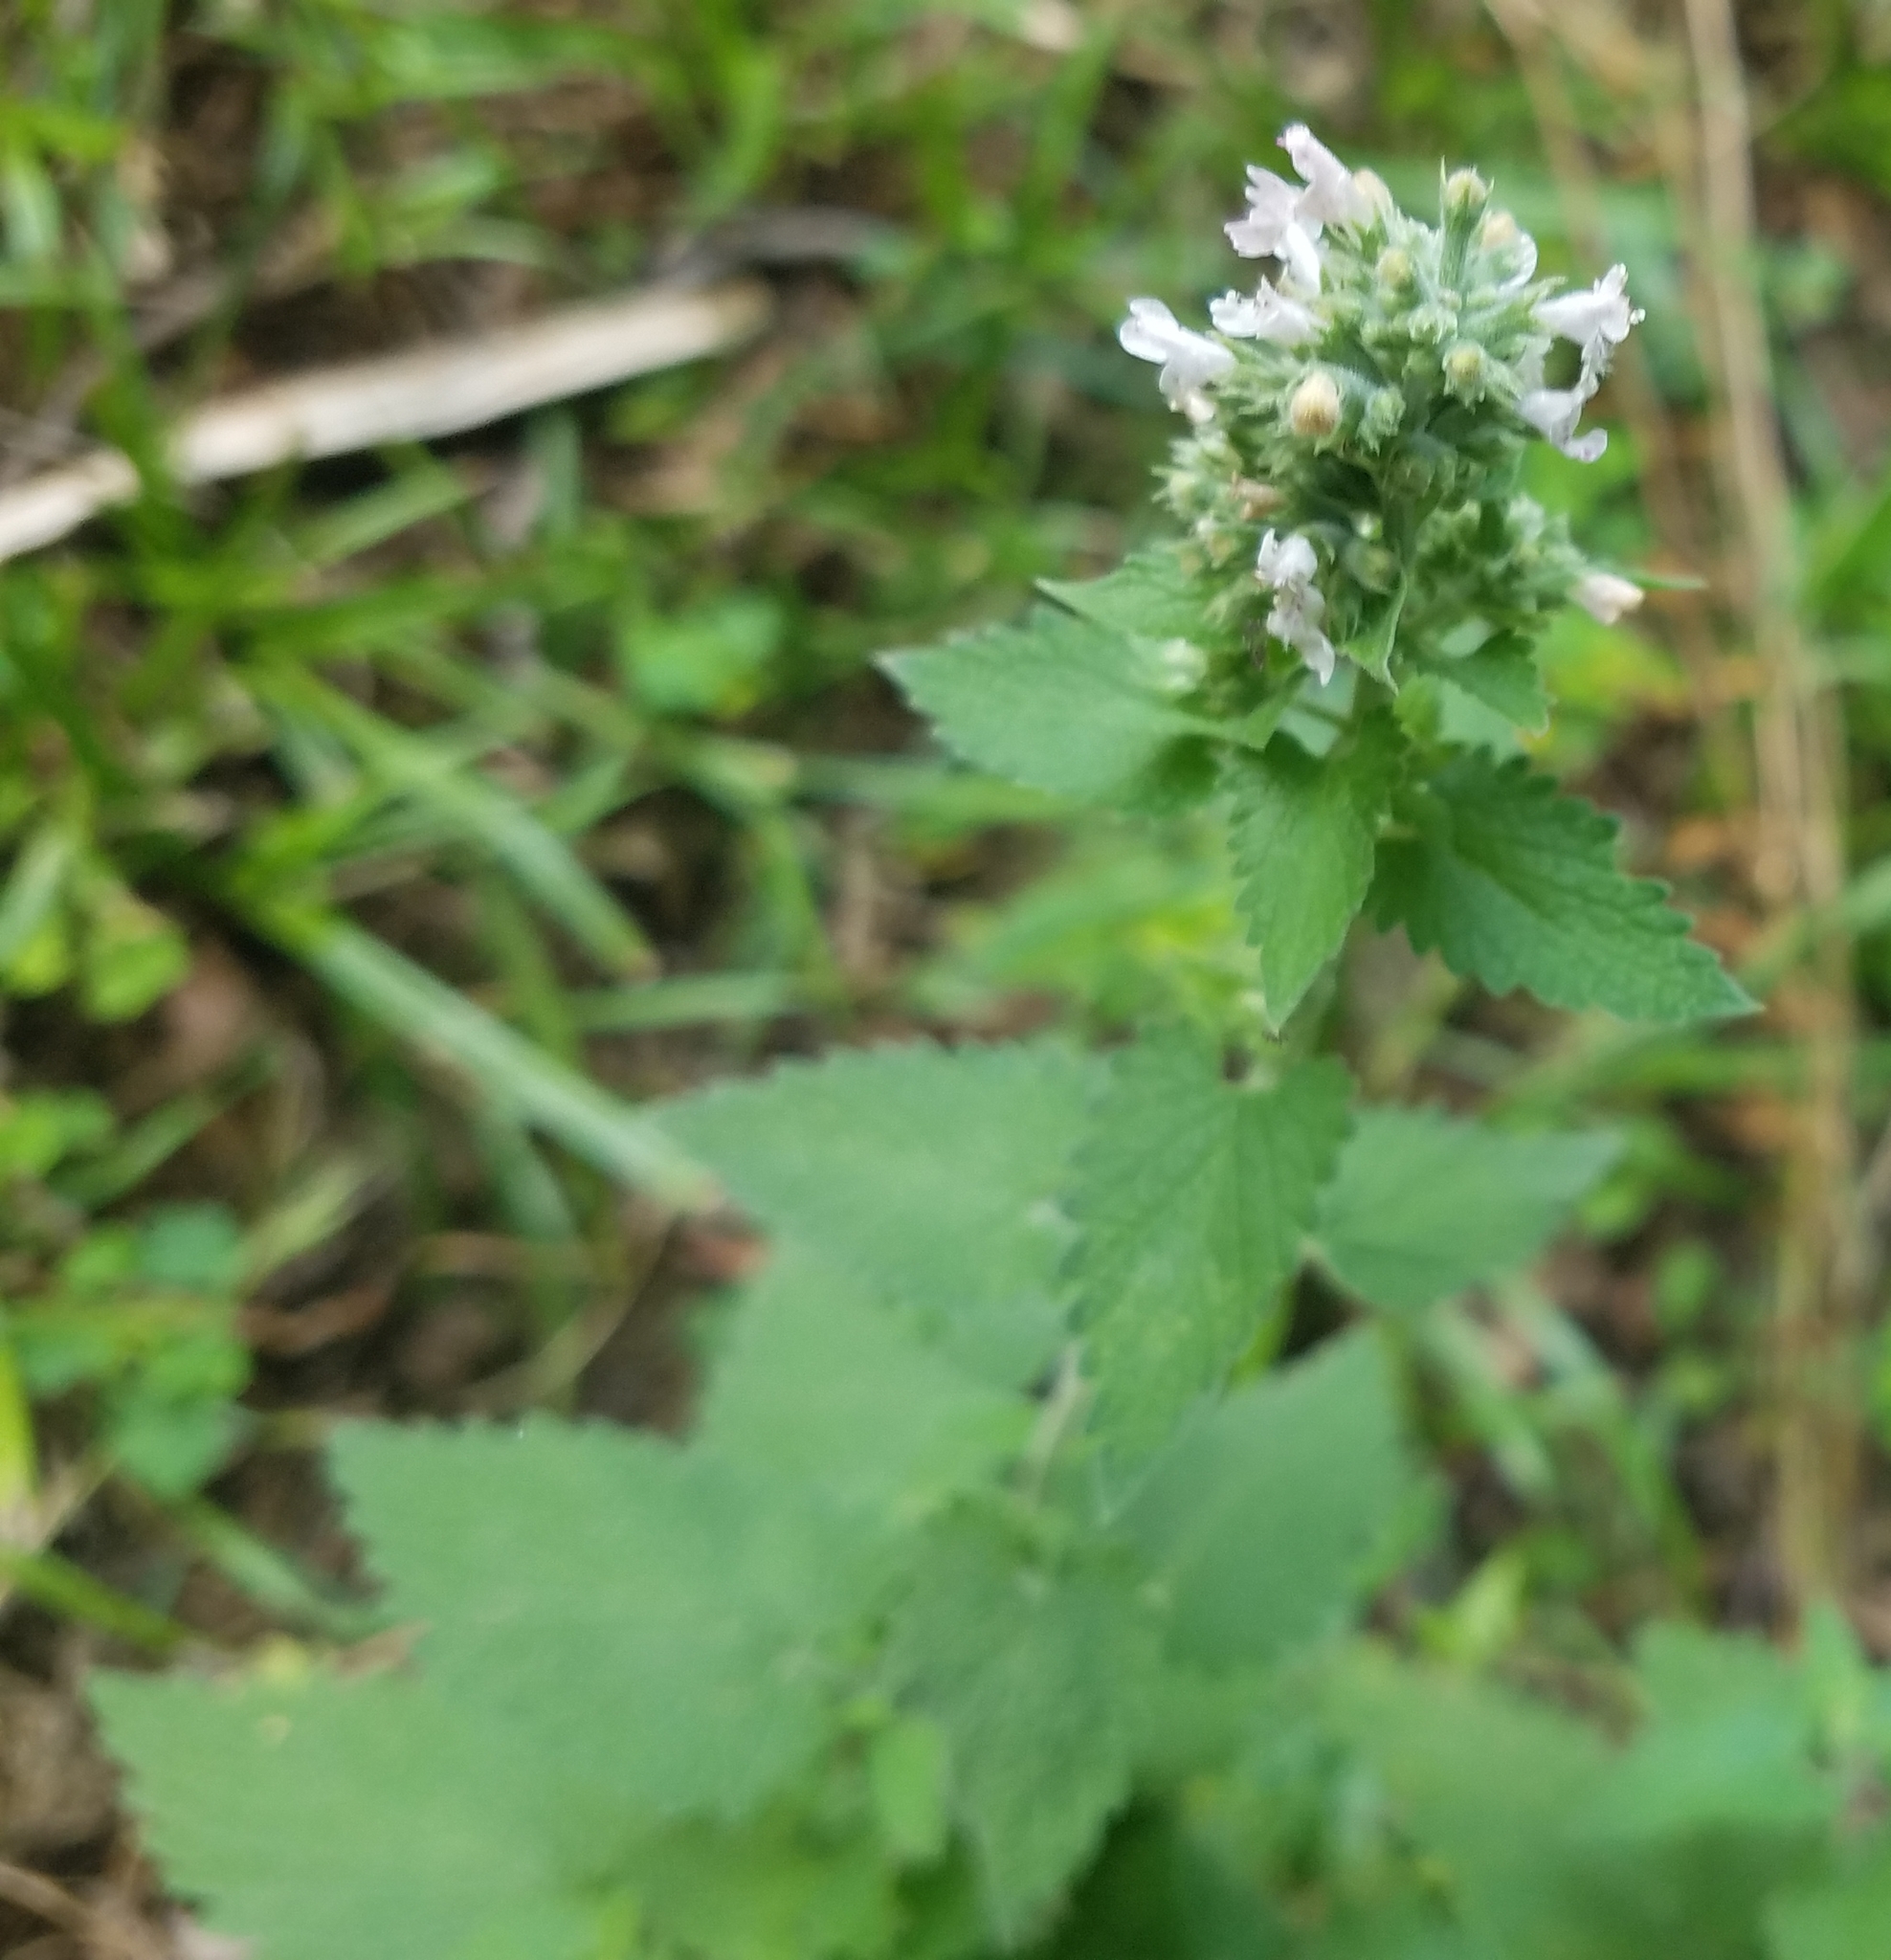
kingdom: Plantae
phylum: Tracheophyta
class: Magnoliopsida
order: Lamiales
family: Lamiaceae
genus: Nepeta
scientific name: Nepeta cataria
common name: Catnip
